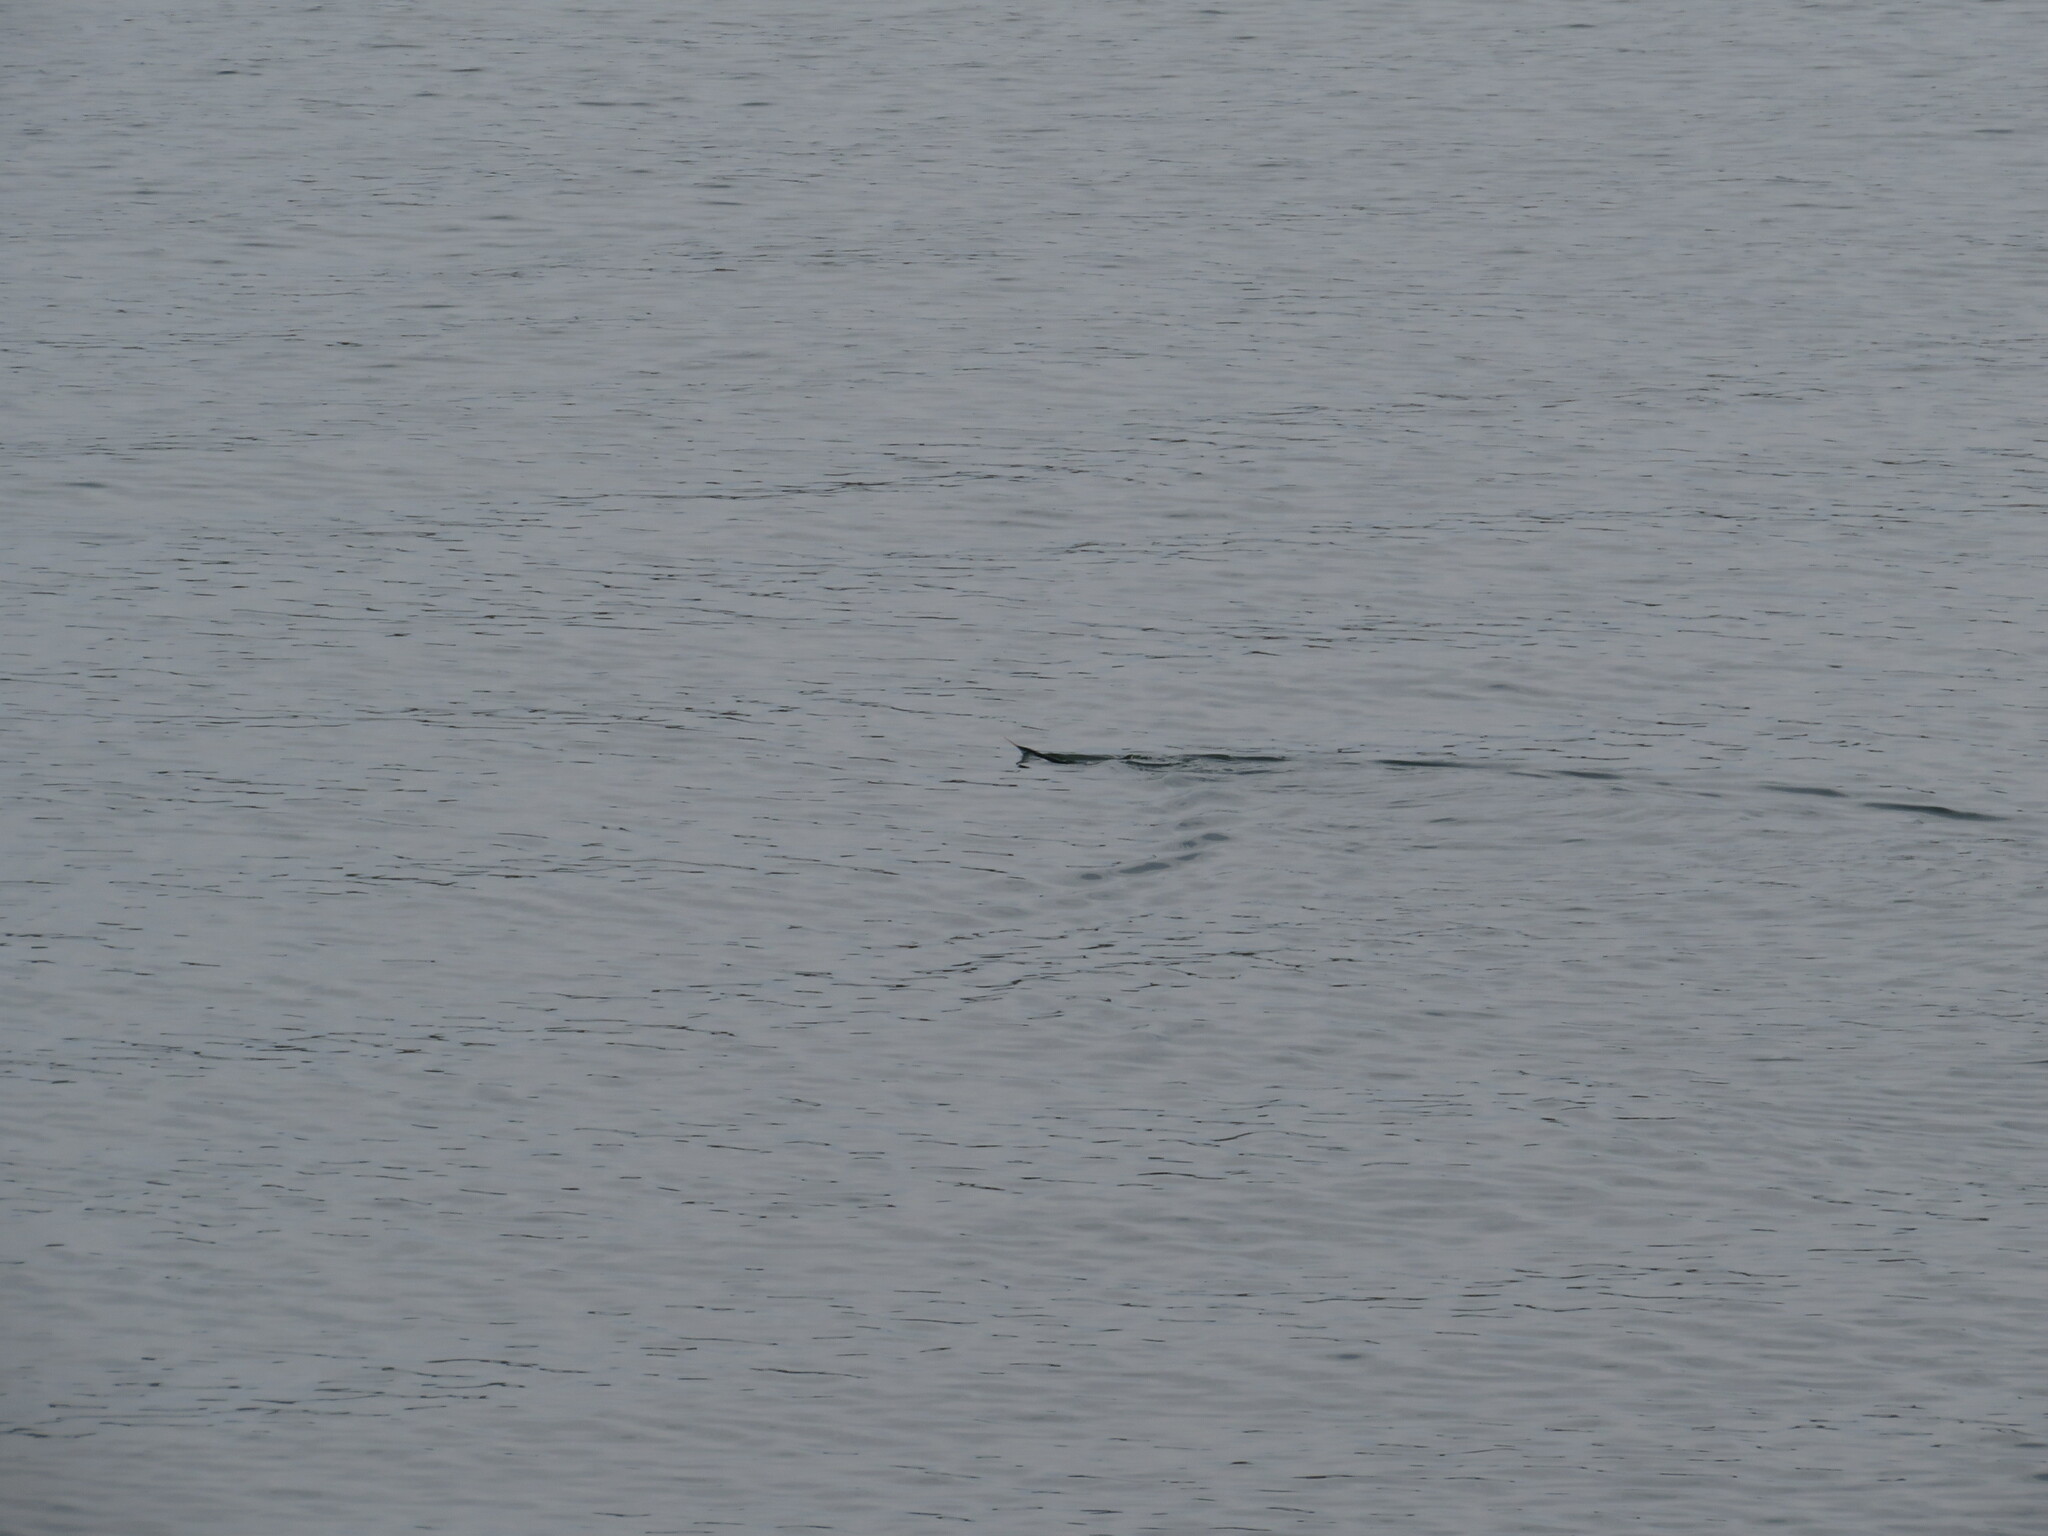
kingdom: Animalia
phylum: Chordata
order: Beloniformes
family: Scomberesocidae
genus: Scomberesox
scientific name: Scomberesox saurus
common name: Skipper
